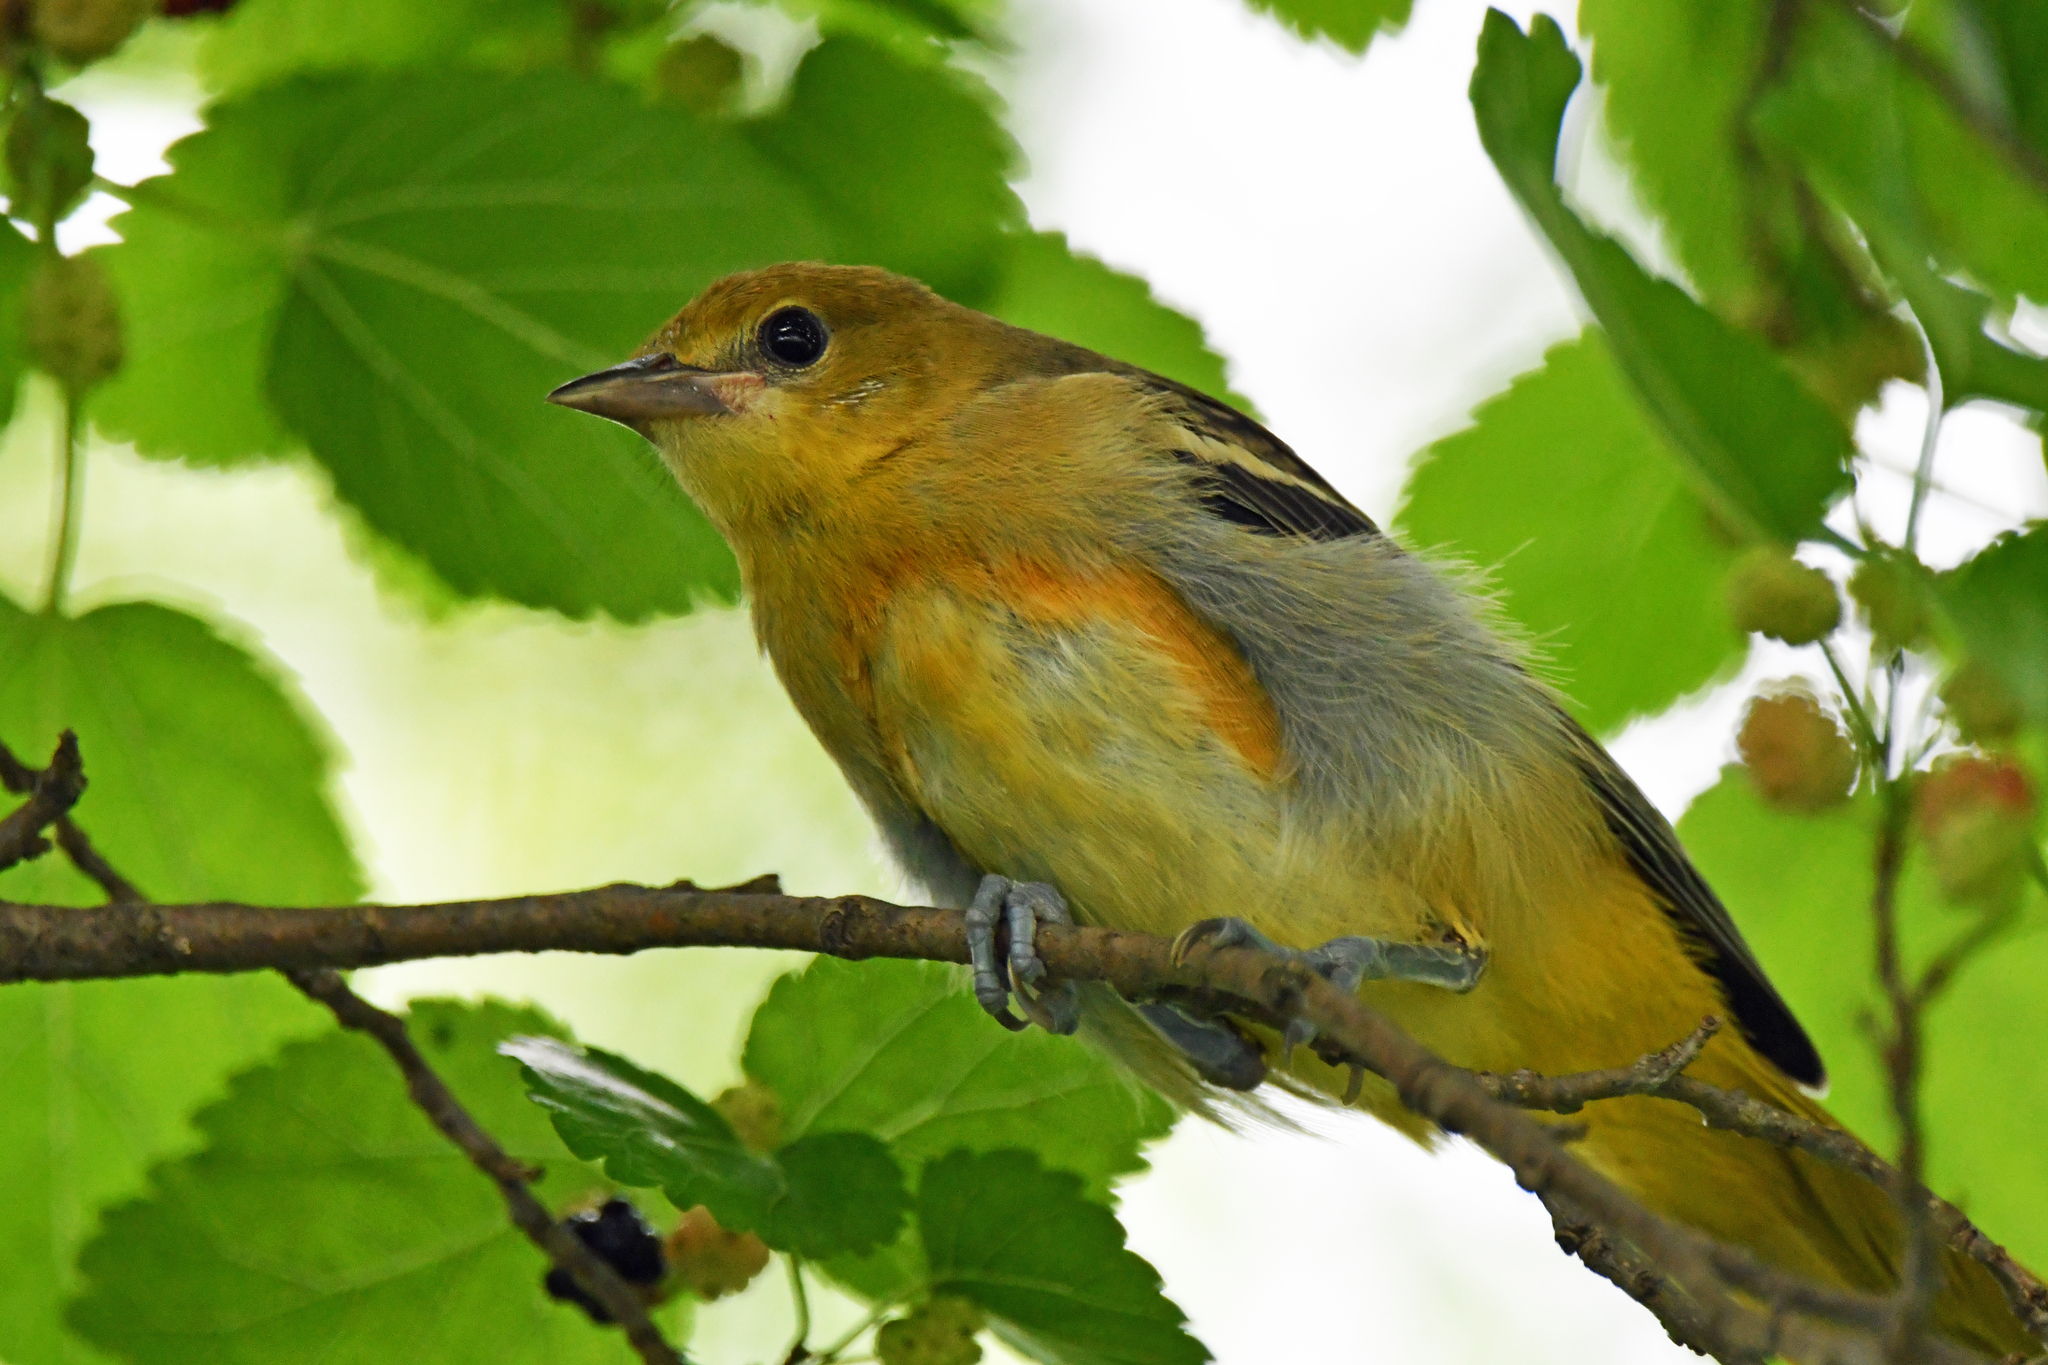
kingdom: Animalia
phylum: Chordata
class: Aves
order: Passeriformes
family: Icteridae
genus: Icterus
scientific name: Icterus galbula
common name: Baltimore oriole
